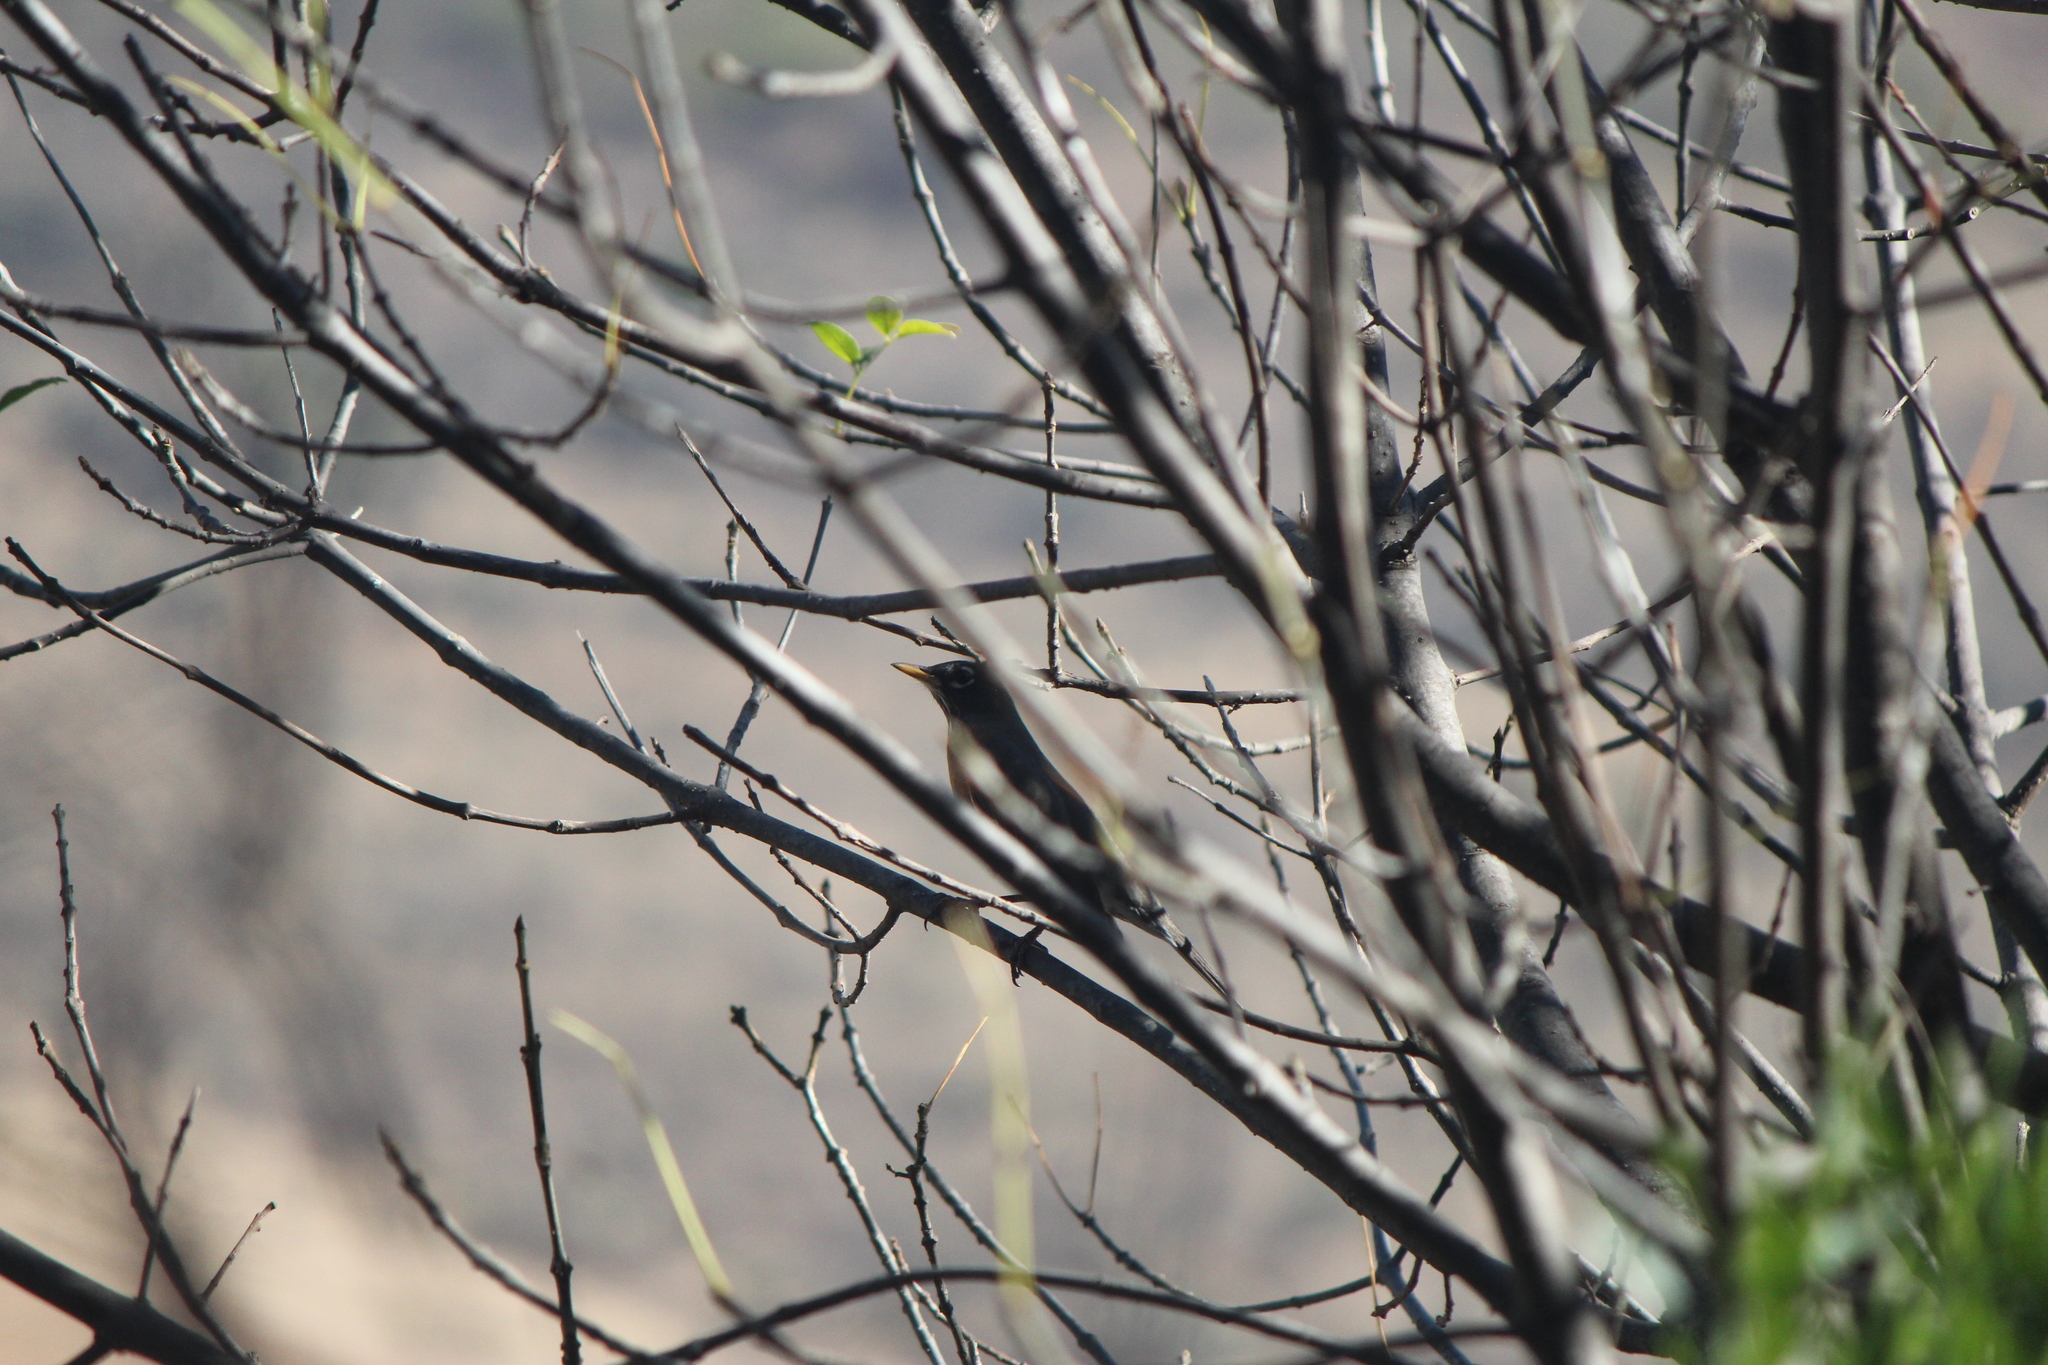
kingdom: Animalia
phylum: Chordata
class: Aves
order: Passeriformes
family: Turdidae
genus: Turdus
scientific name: Turdus migratorius
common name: American robin
